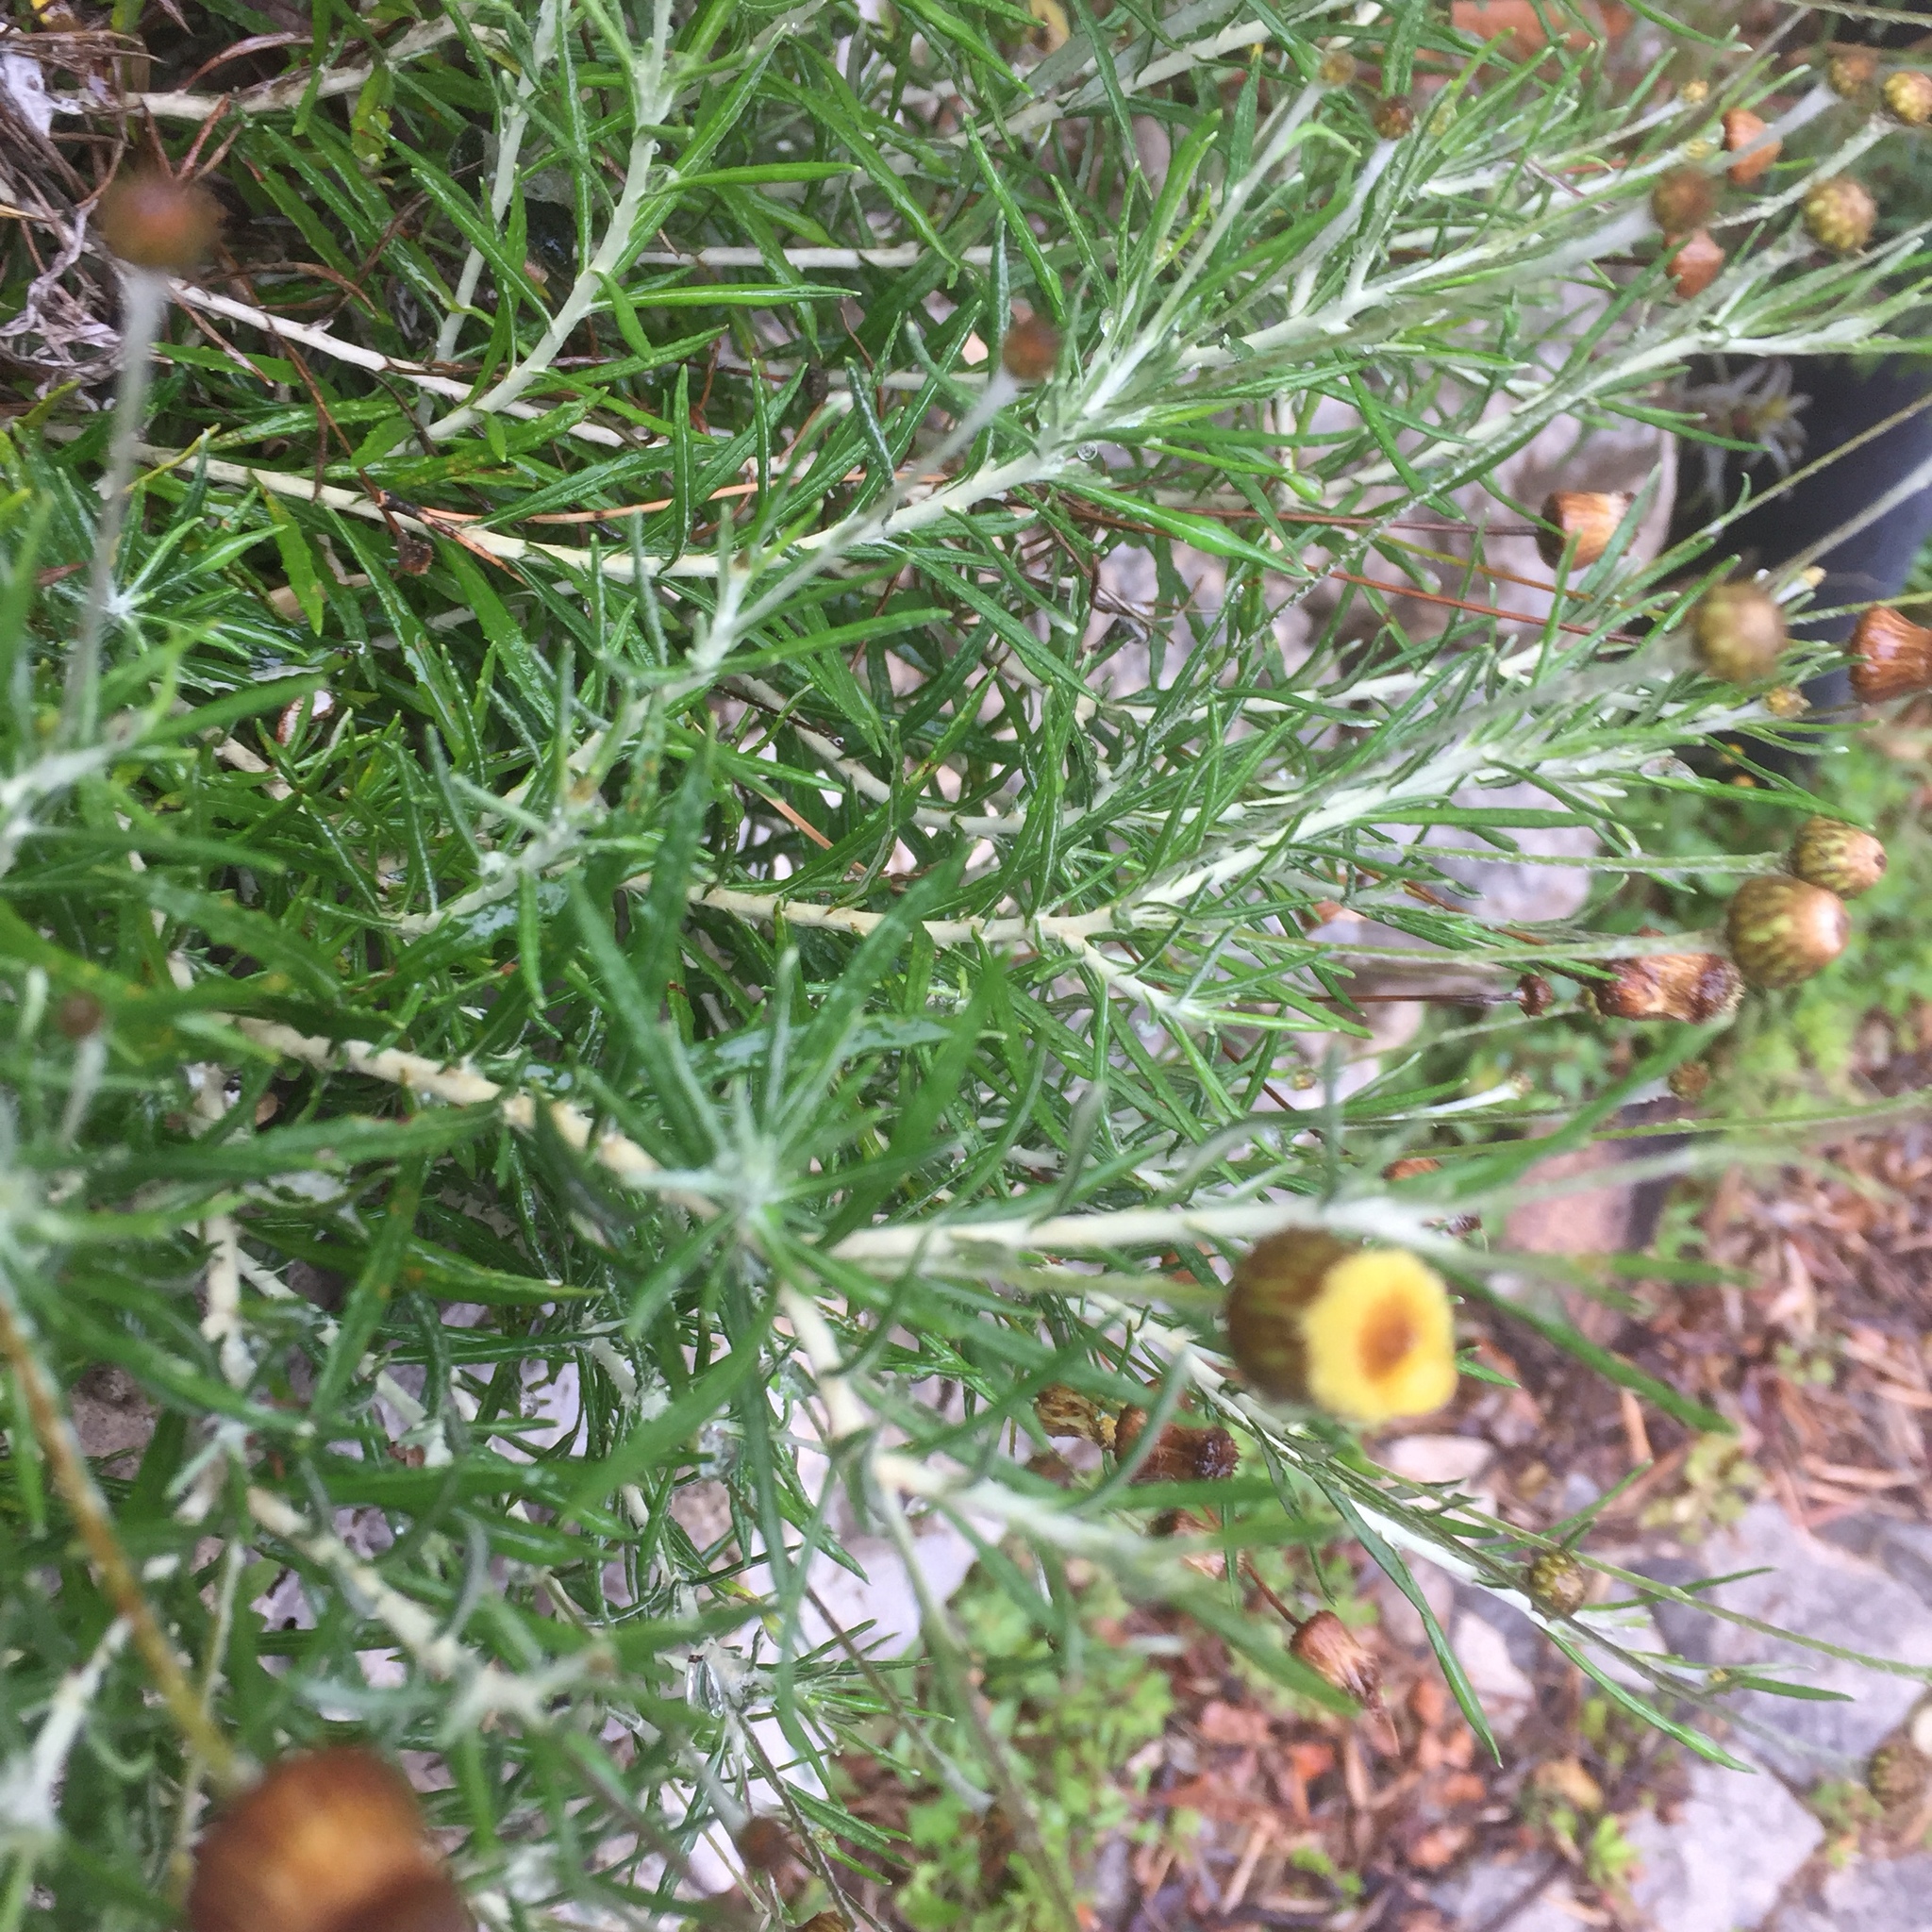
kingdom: Plantae
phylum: Tracheophyta
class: Magnoliopsida
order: Asterales
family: Asteraceae
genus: Phagnalon
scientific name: Phagnalon saxatile
